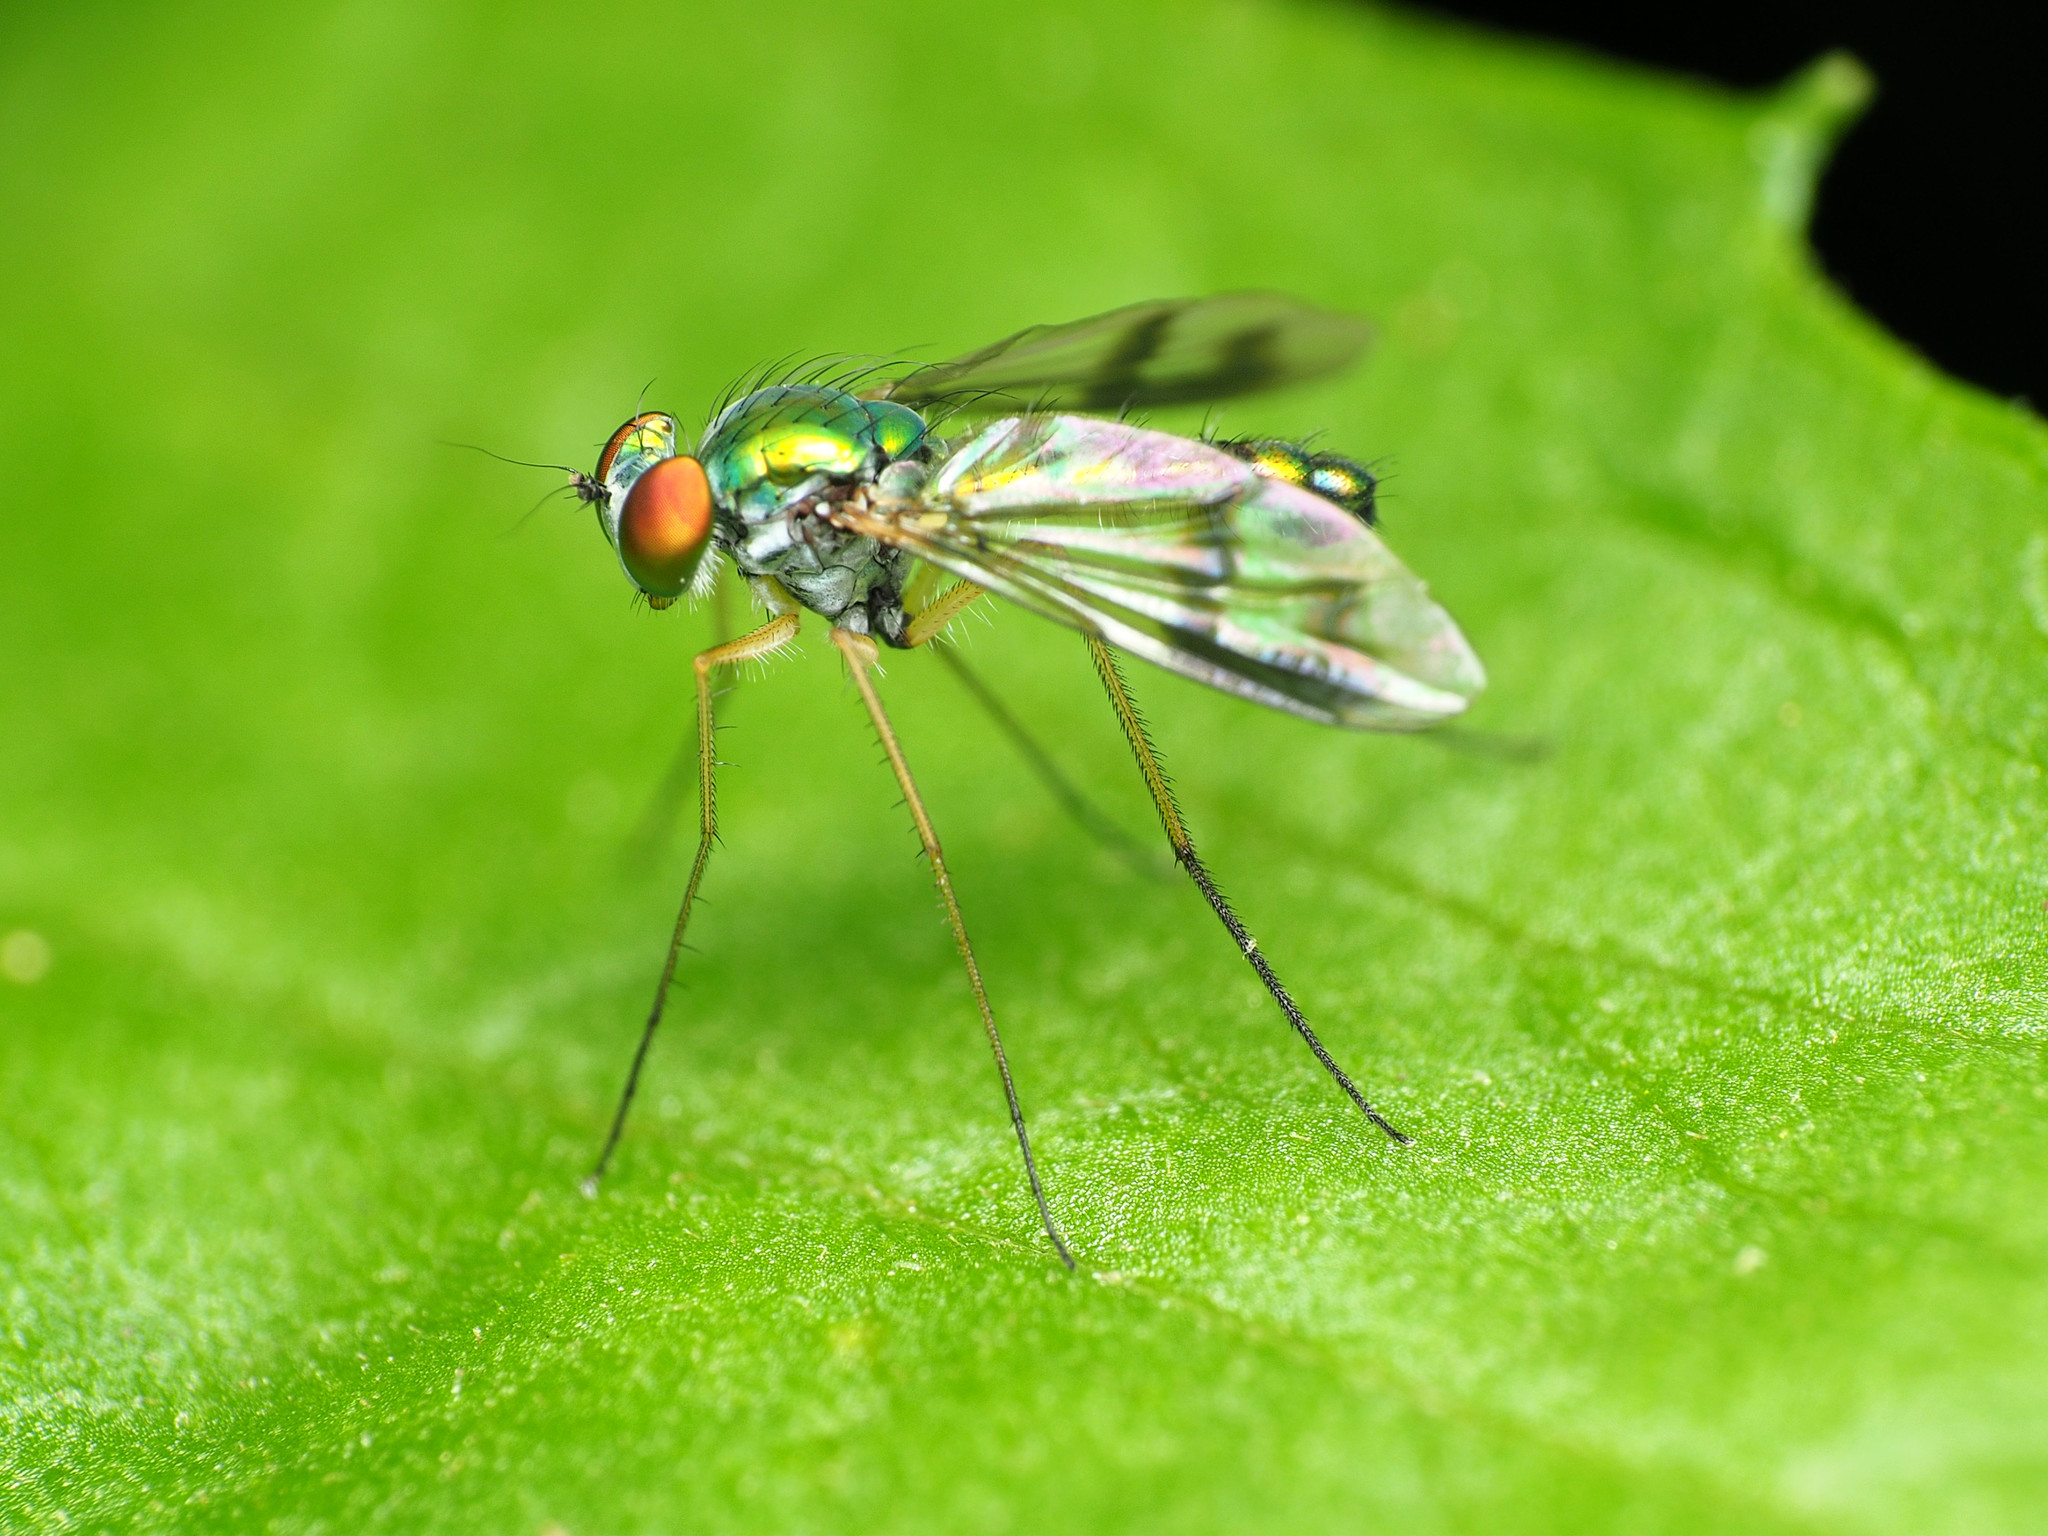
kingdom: Animalia
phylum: Arthropoda
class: Insecta
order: Diptera
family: Dolichopodidae
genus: Condylostylus
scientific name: Condylostylus brimleyi
